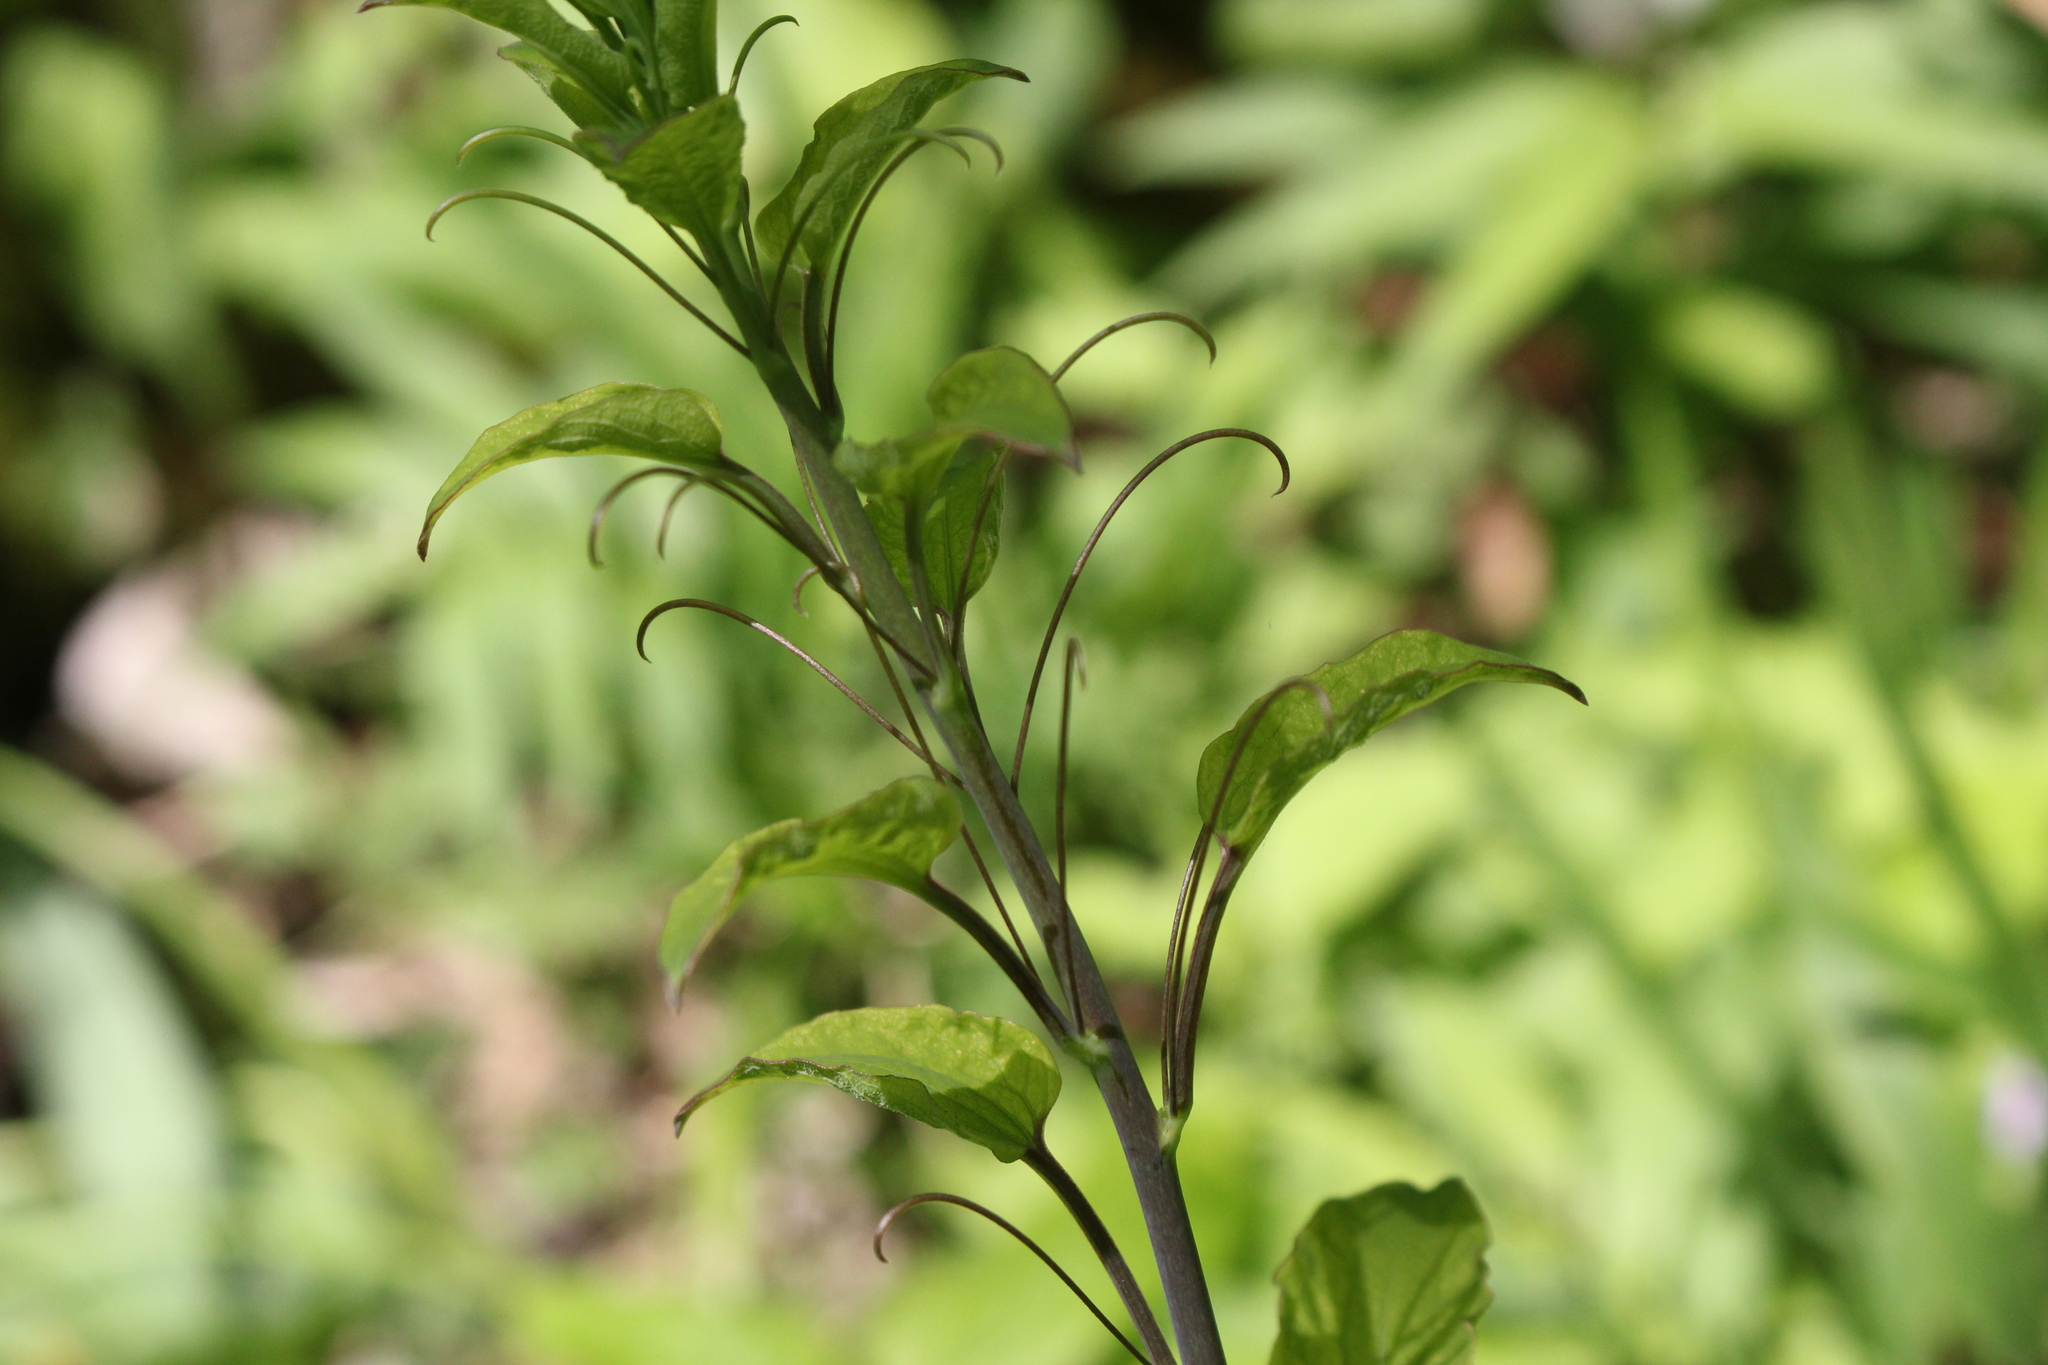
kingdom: Plantae
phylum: Tracheophyta
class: Liliopsida
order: Liliales
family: Smilacaceae
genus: Smilax
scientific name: Smilax lasioneura
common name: Blue ridge carrionflower
